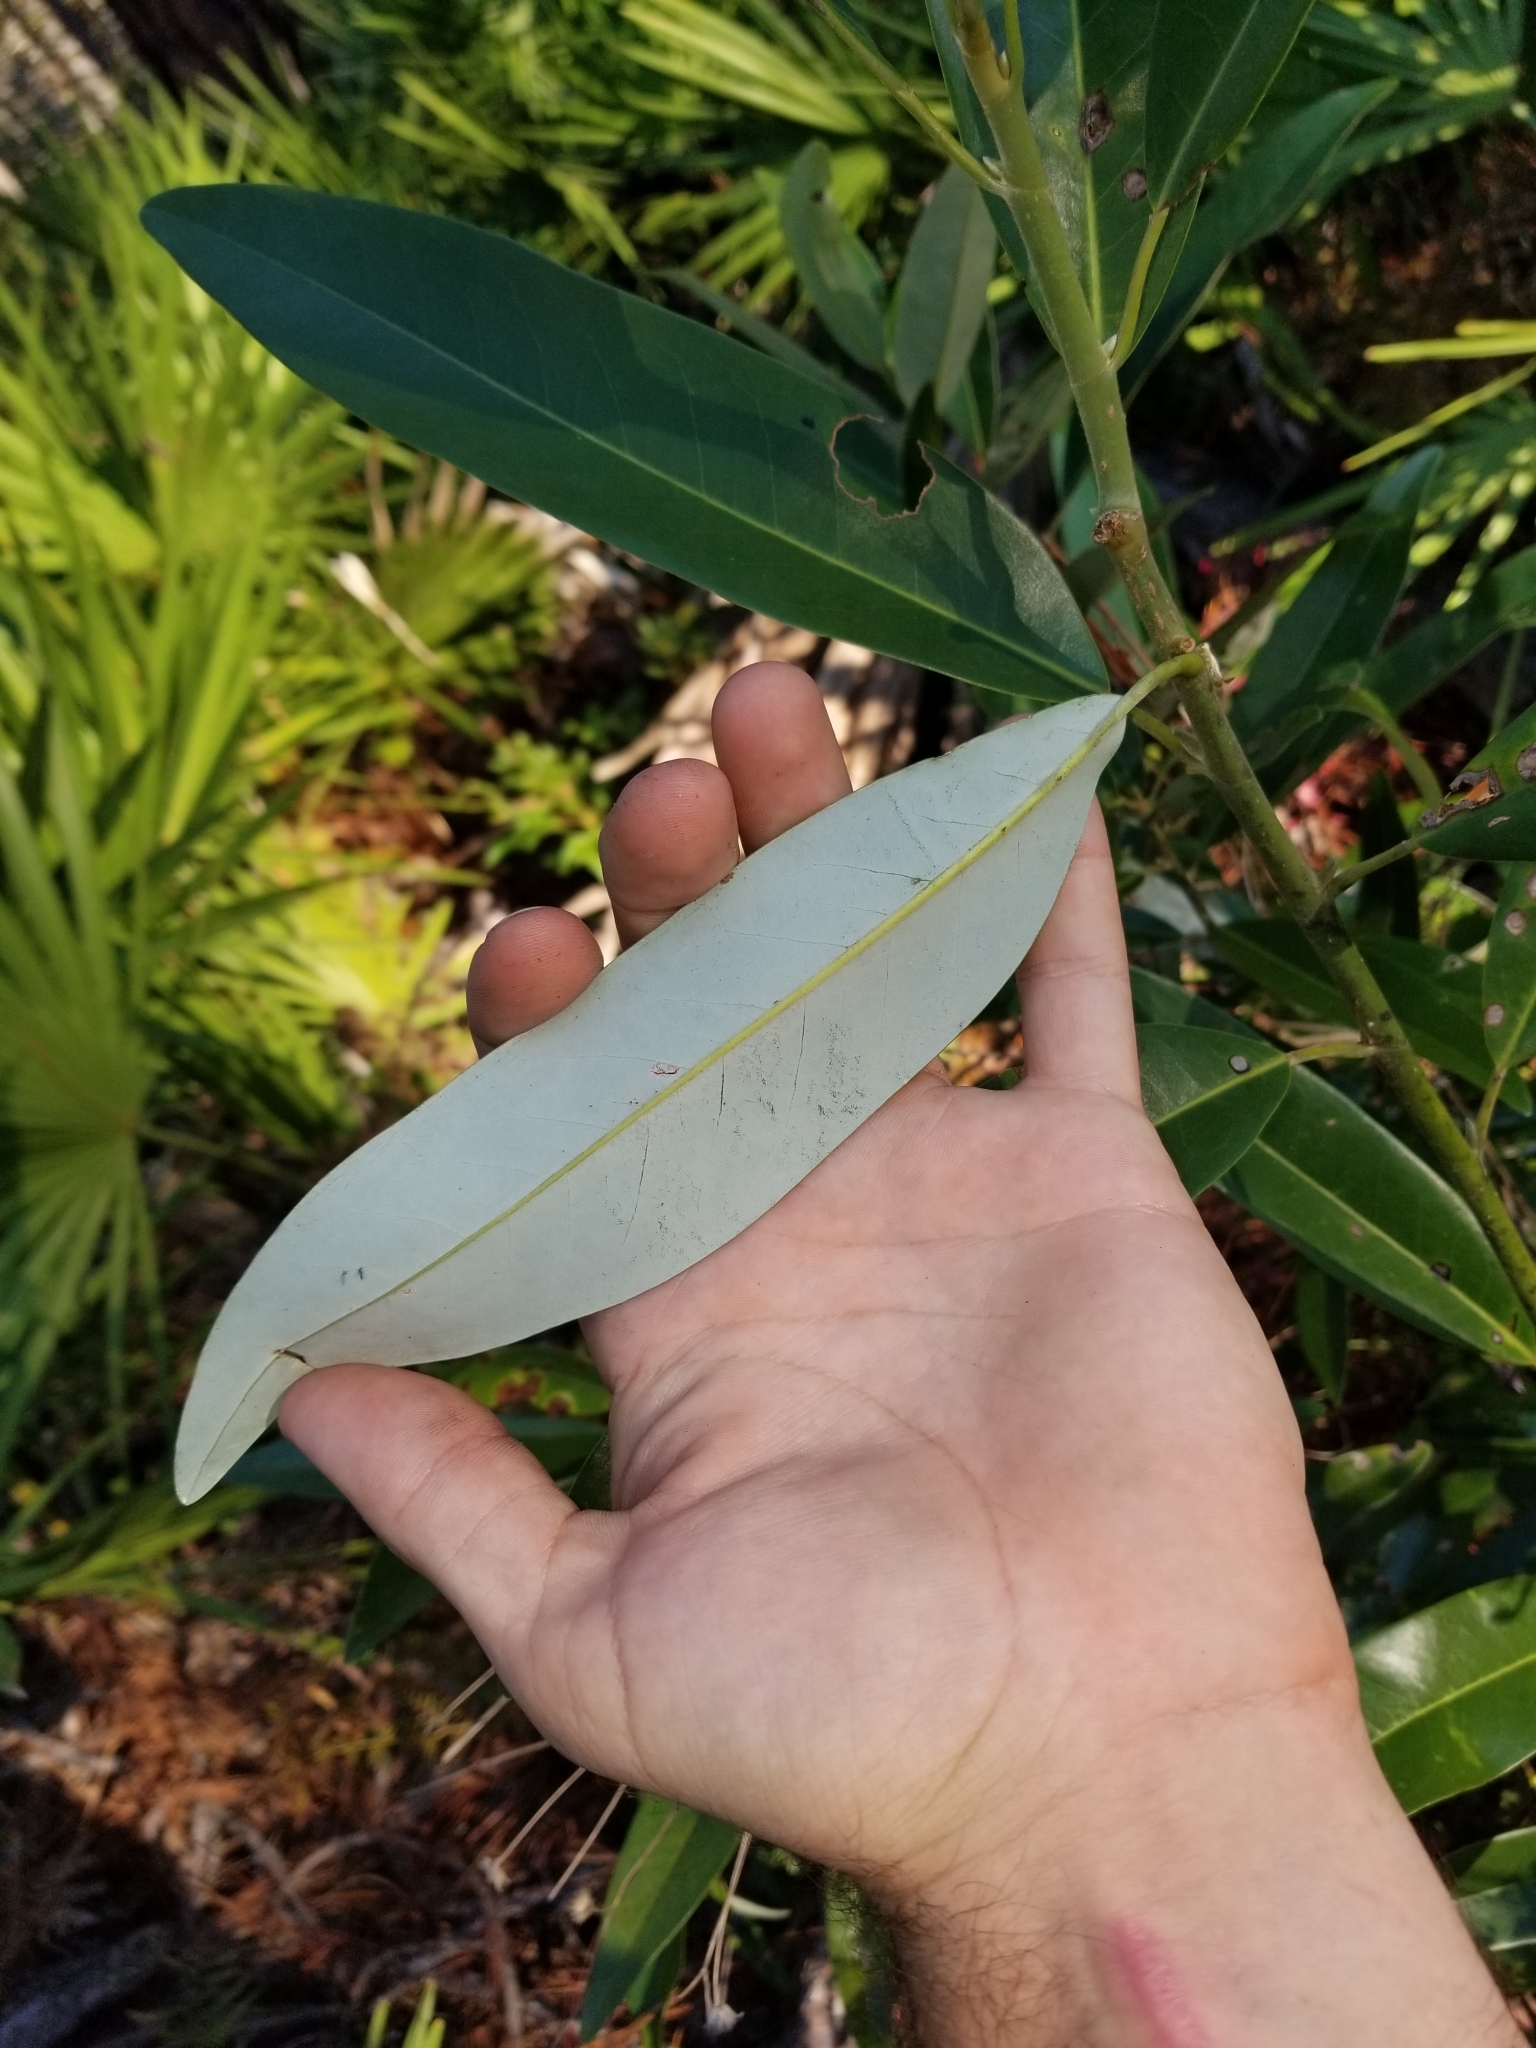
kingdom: Plantae
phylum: Tracheophyta
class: Magnoliopsida
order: Magnoliales
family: Magnoliaceae
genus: Magnolia
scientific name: Magnolia virginiana
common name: Swamp bay
